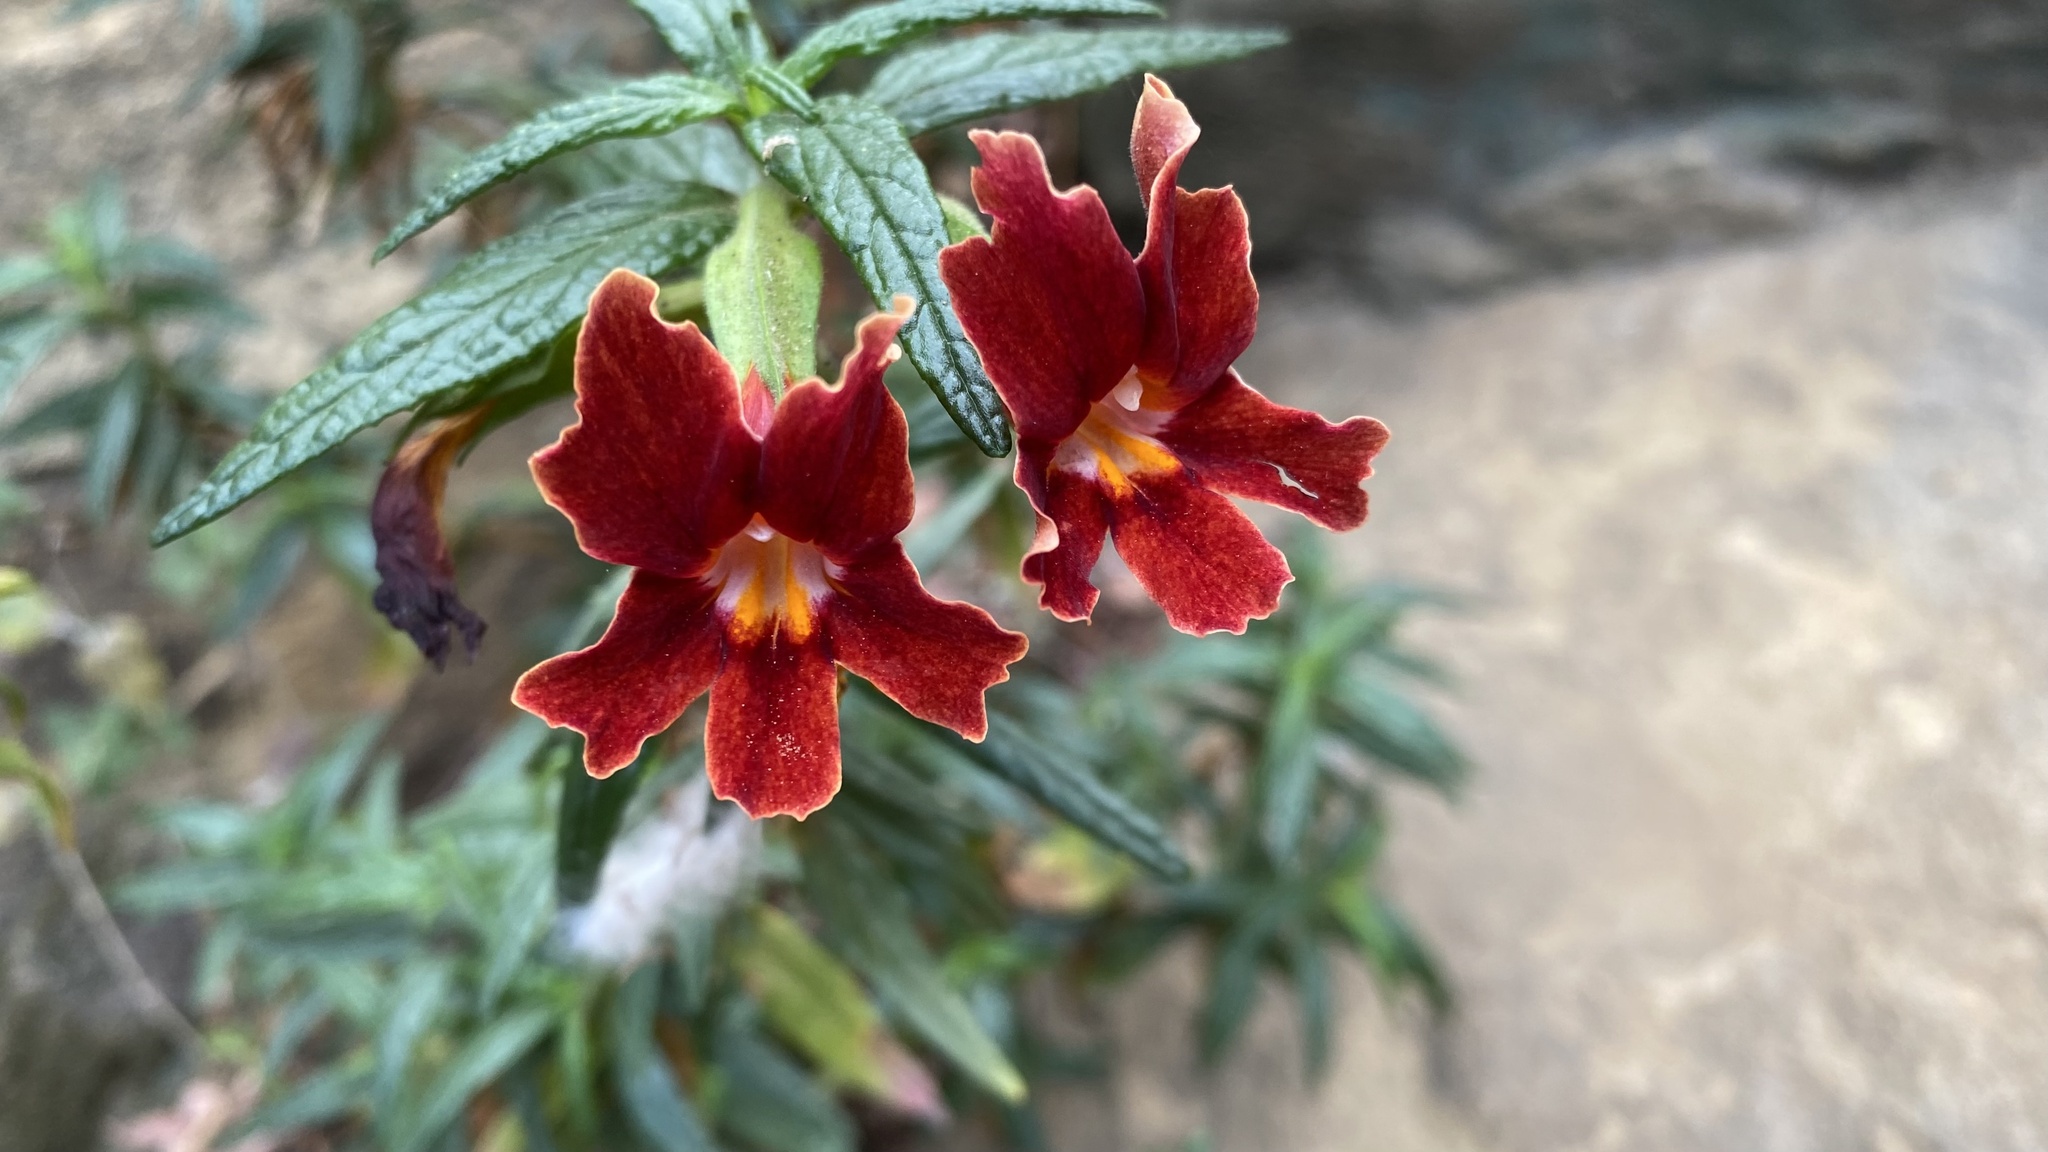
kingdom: Plantae
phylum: Tracheophyta
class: Magnoliopsida
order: Lamiales
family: Phrymaceae
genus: Diplacus
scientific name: Diplacus rutilus
